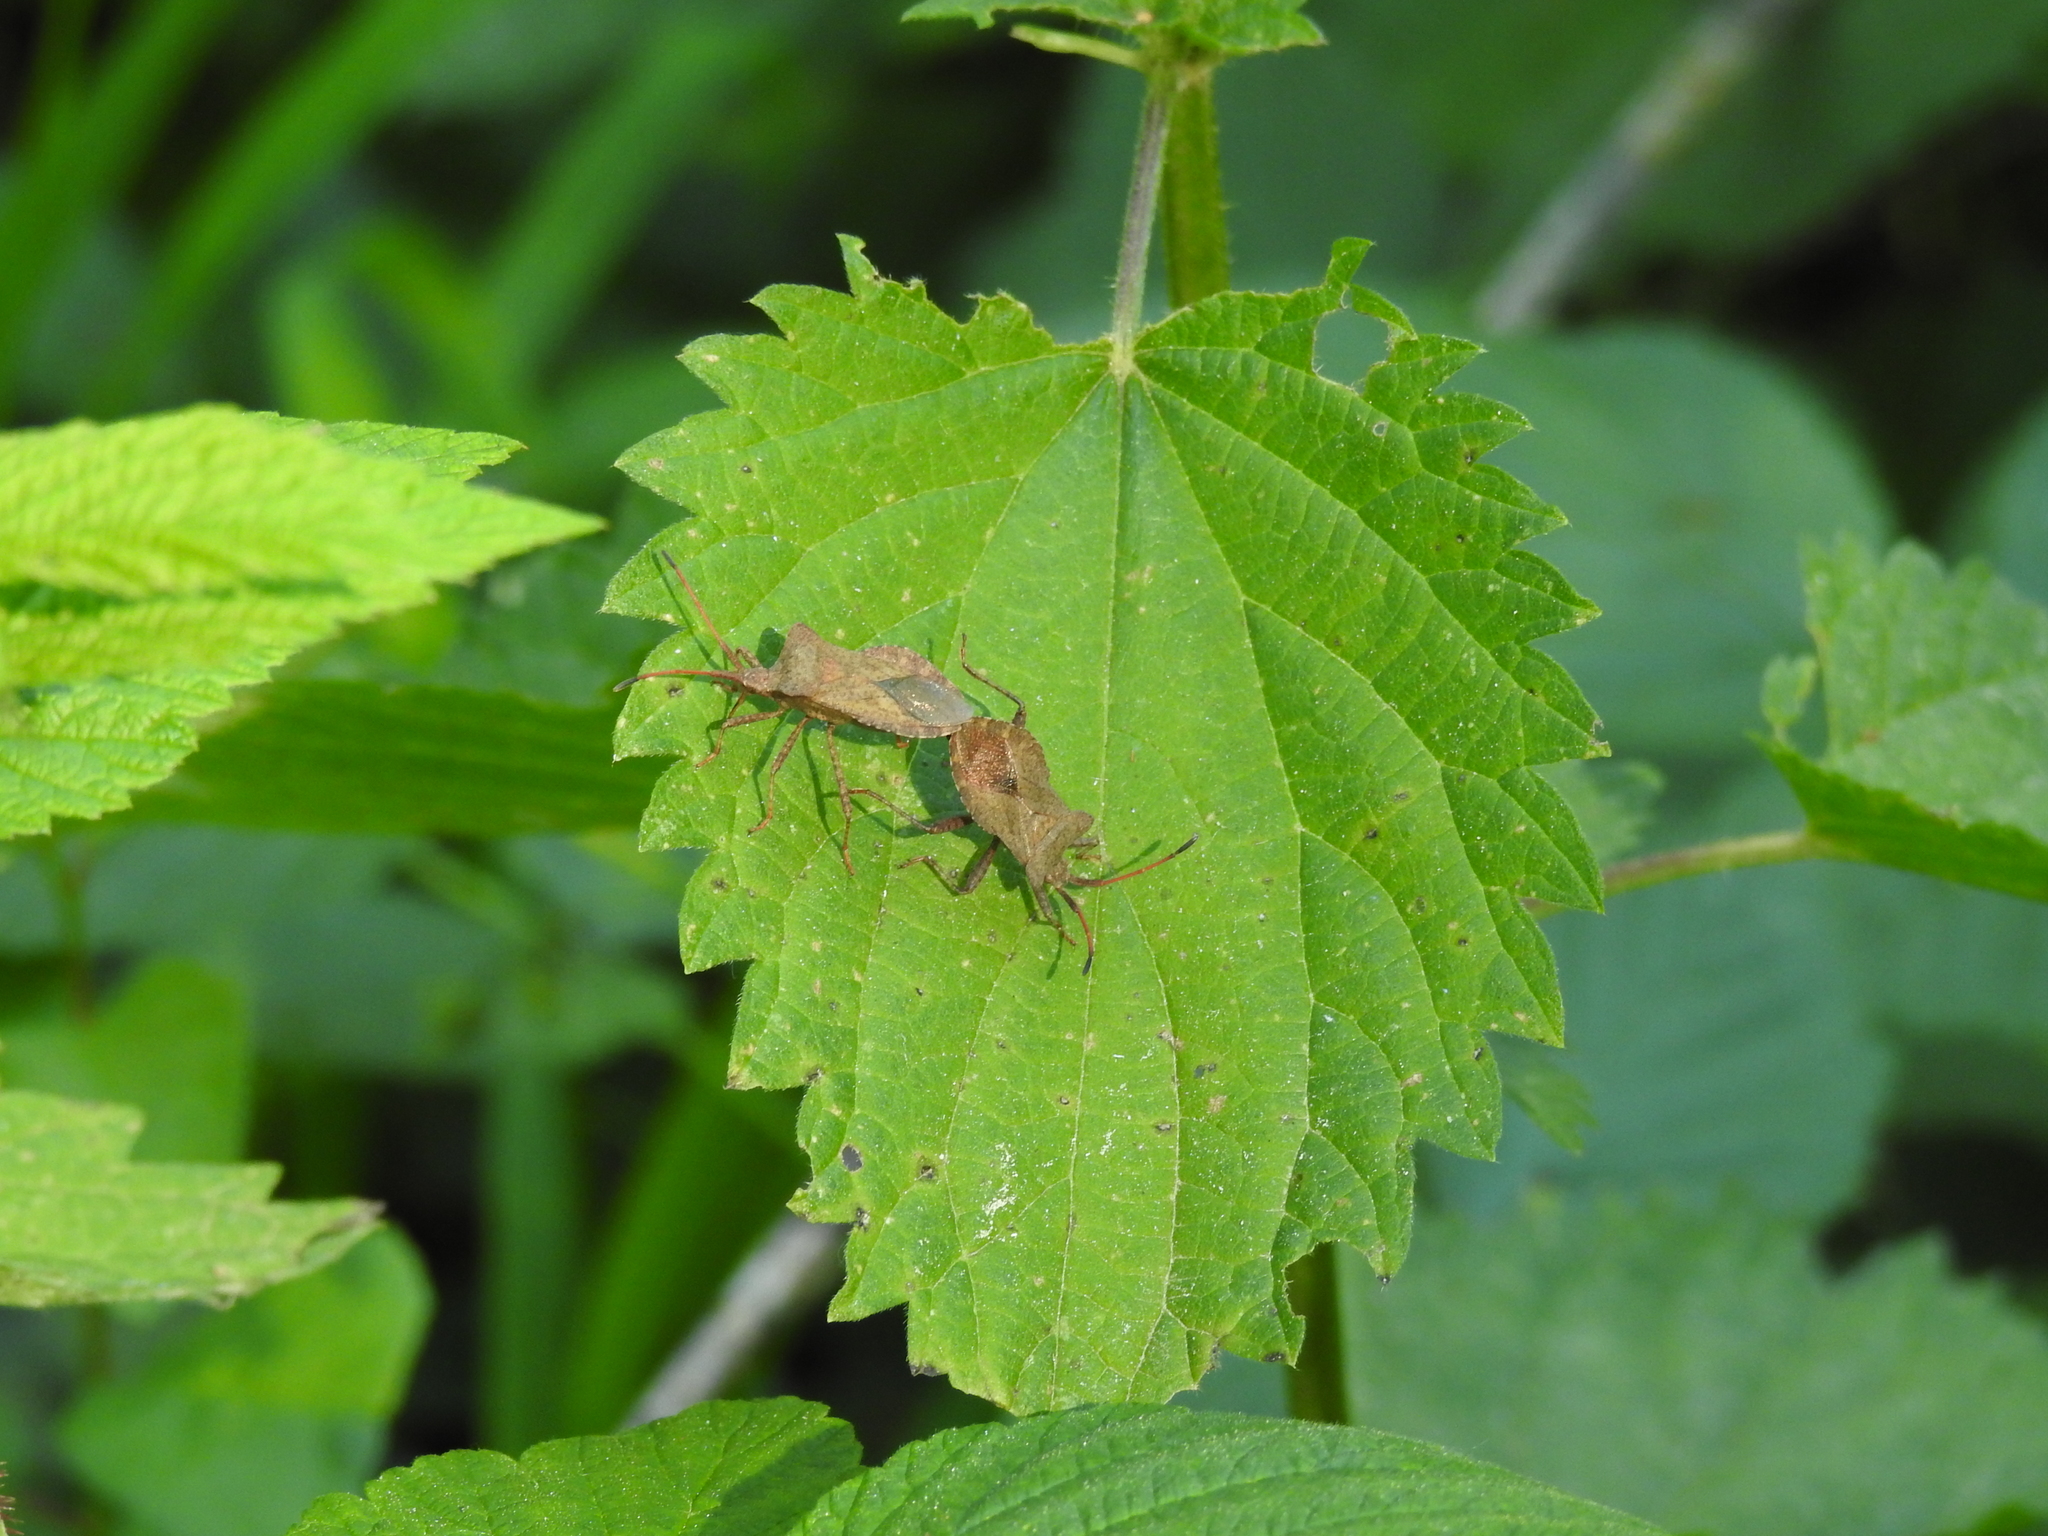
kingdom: Animalia
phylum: Arthropoda
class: Insecta
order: Hemiptera
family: Coreidae
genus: Coreus
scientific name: Coreus marginatus
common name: Dock bug
